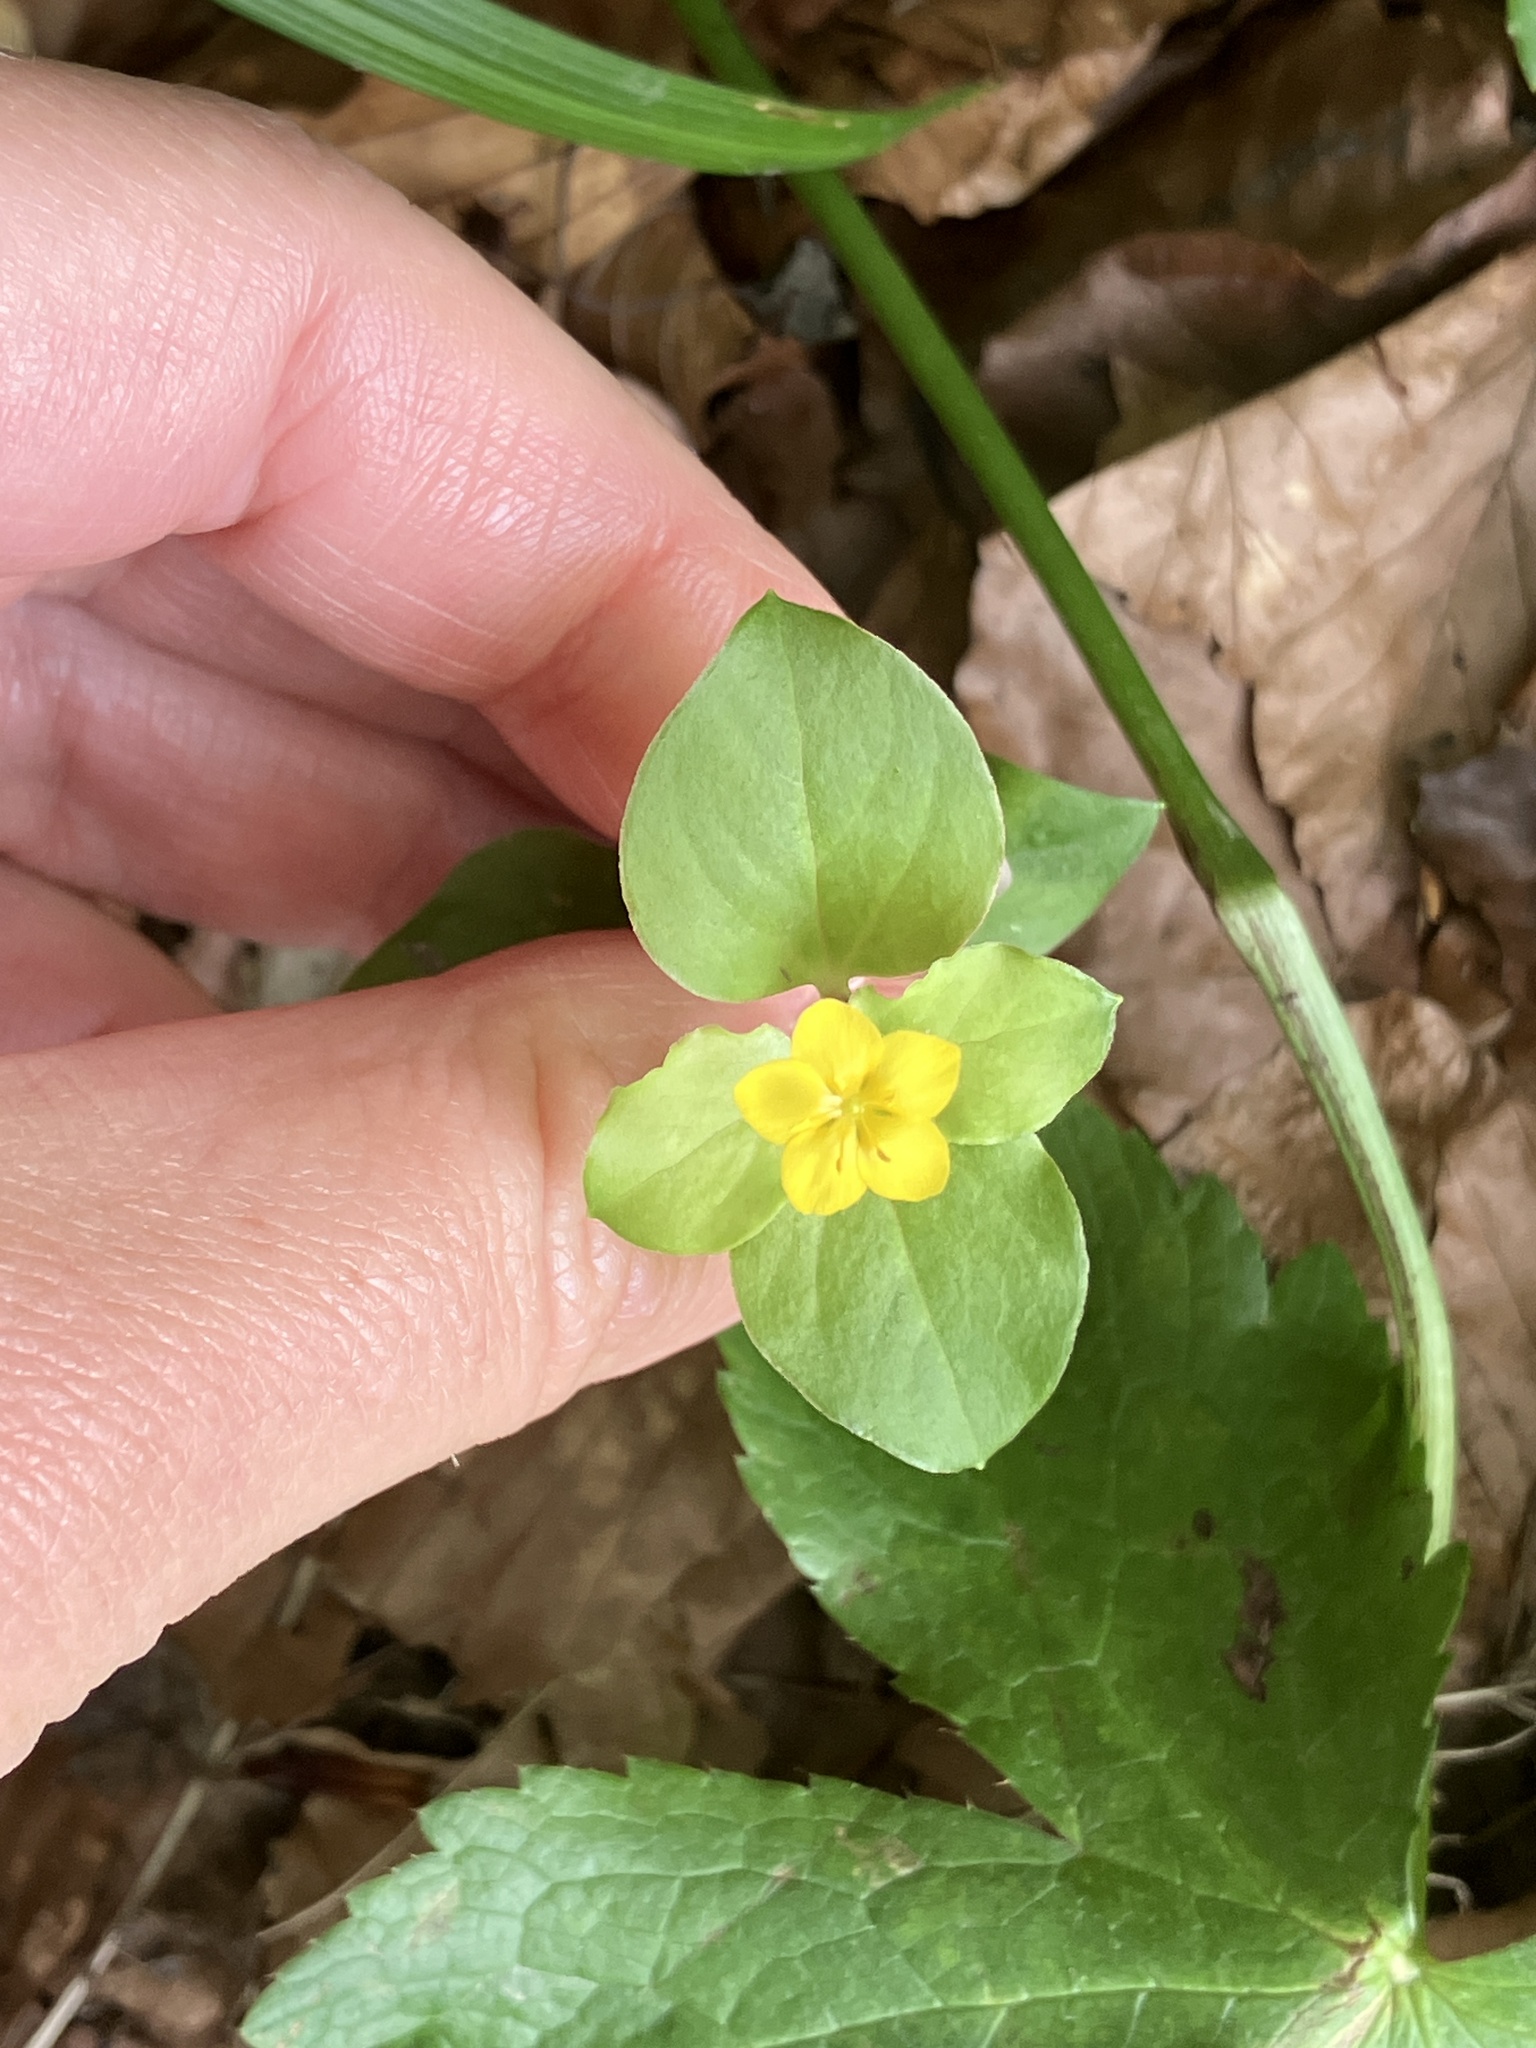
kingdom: Plantae
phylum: Tracheophyta
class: Magnoliopsida
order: Ericales
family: Primulaceae
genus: Lysimachia
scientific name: Lysimachia nemorum
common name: Yellow pimpernel
